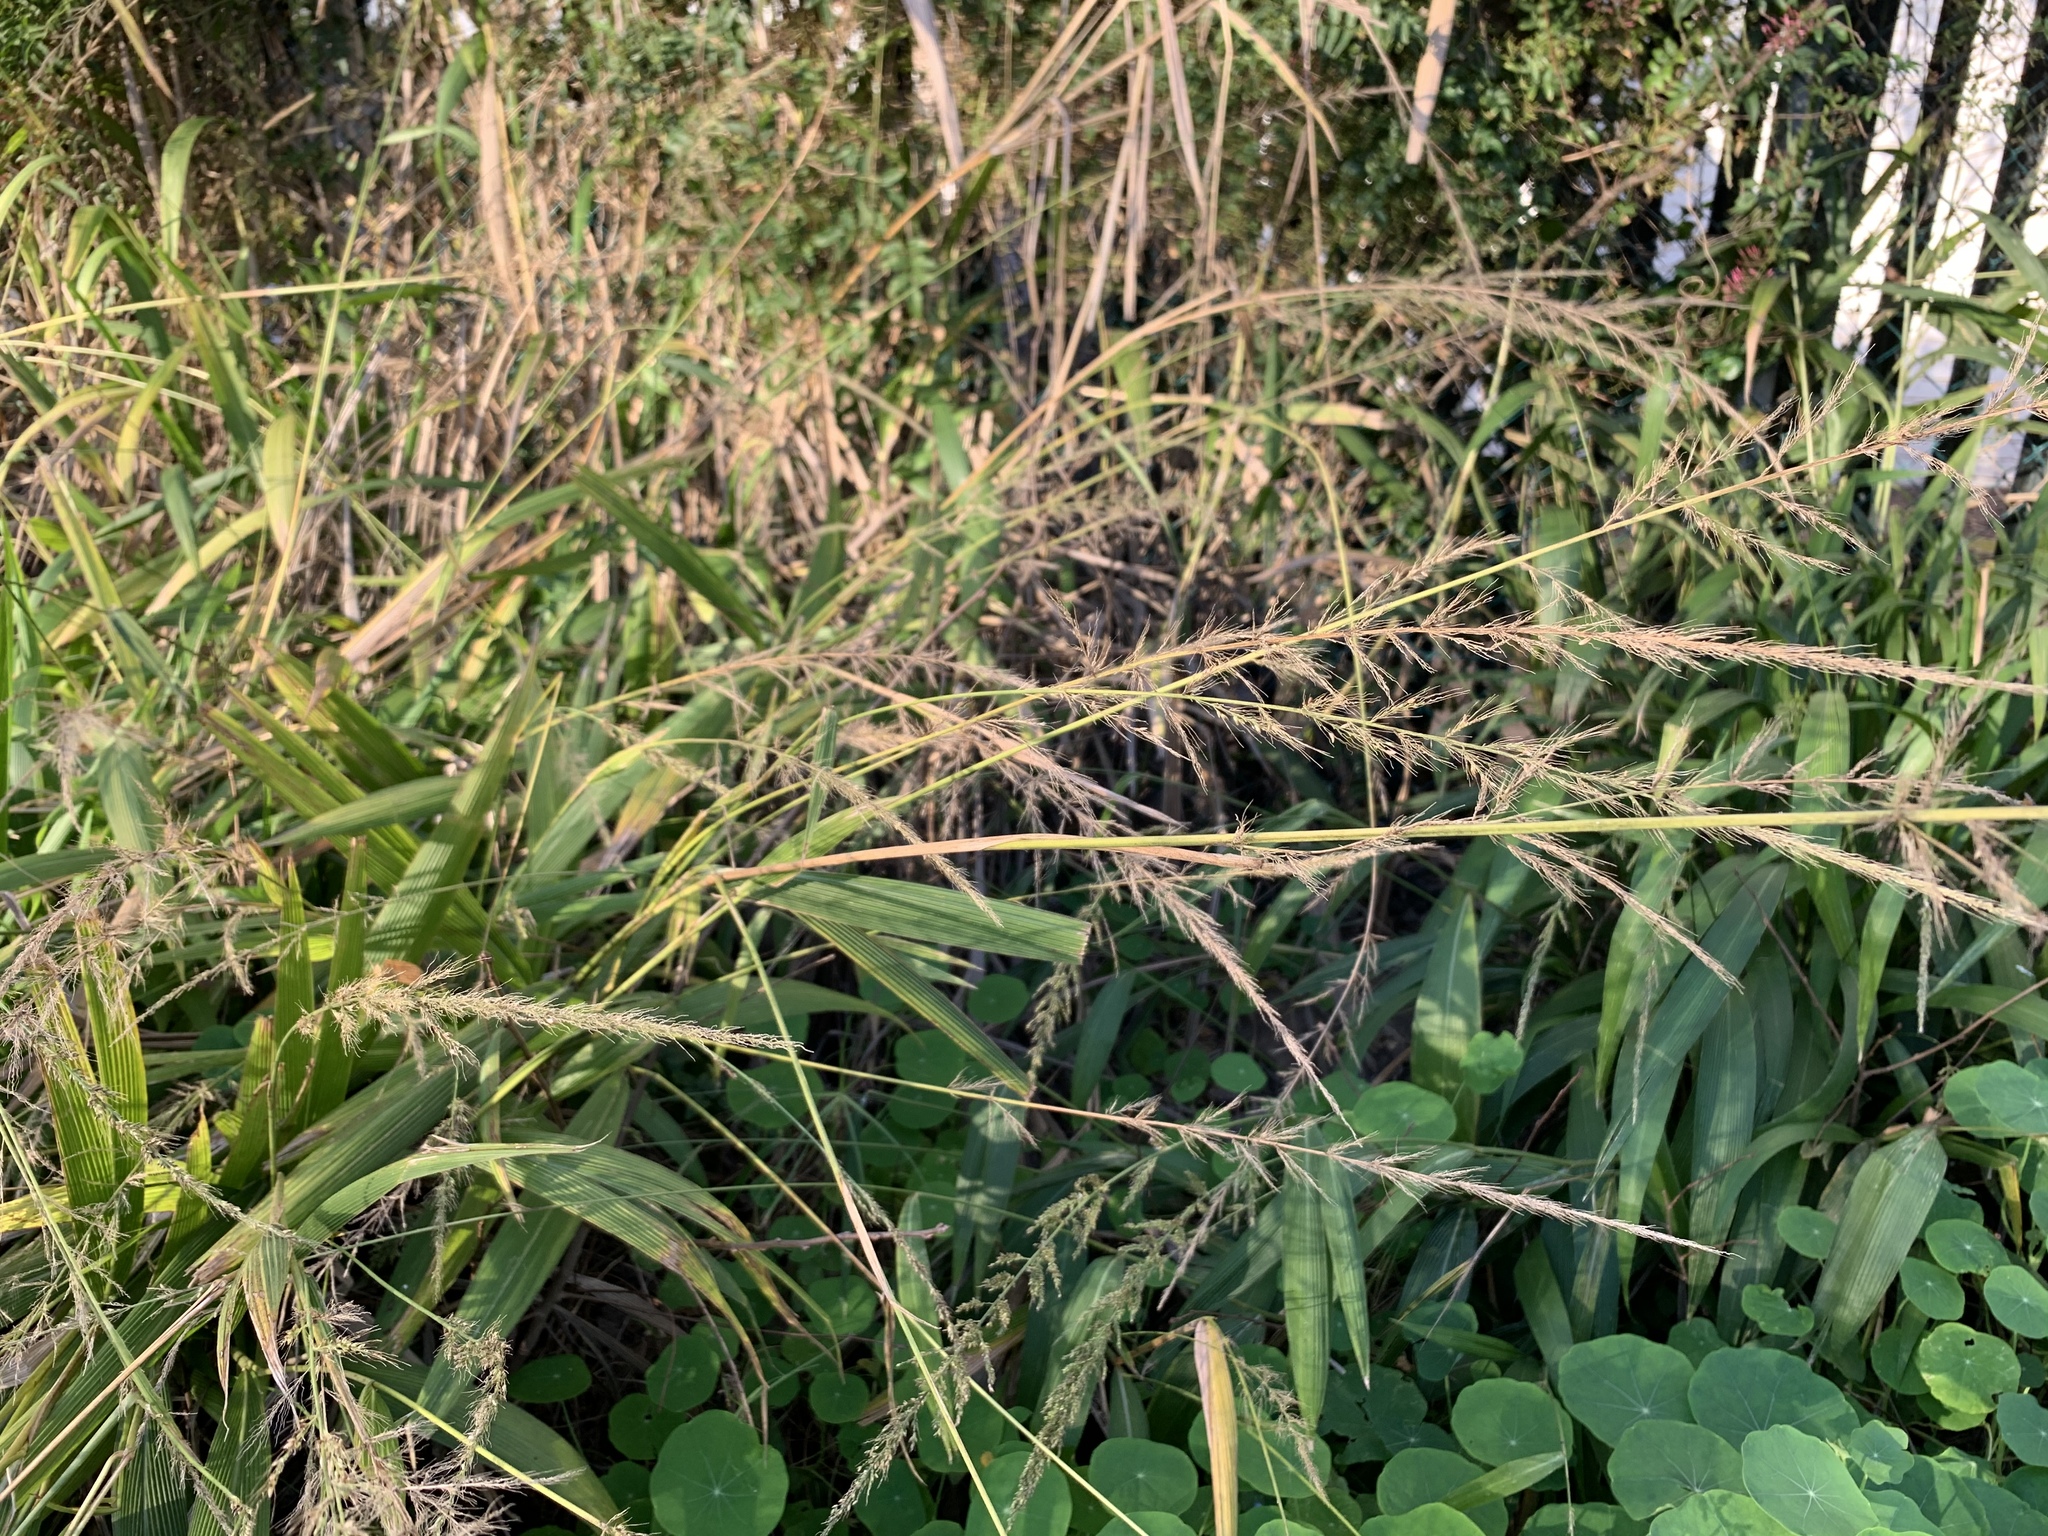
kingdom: Plantae
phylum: Tracheophyta
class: Liliopsida
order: Poales
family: Poaceae
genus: Setaria
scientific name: Setaria megaphylla
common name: Bigleaf bristlegrass
